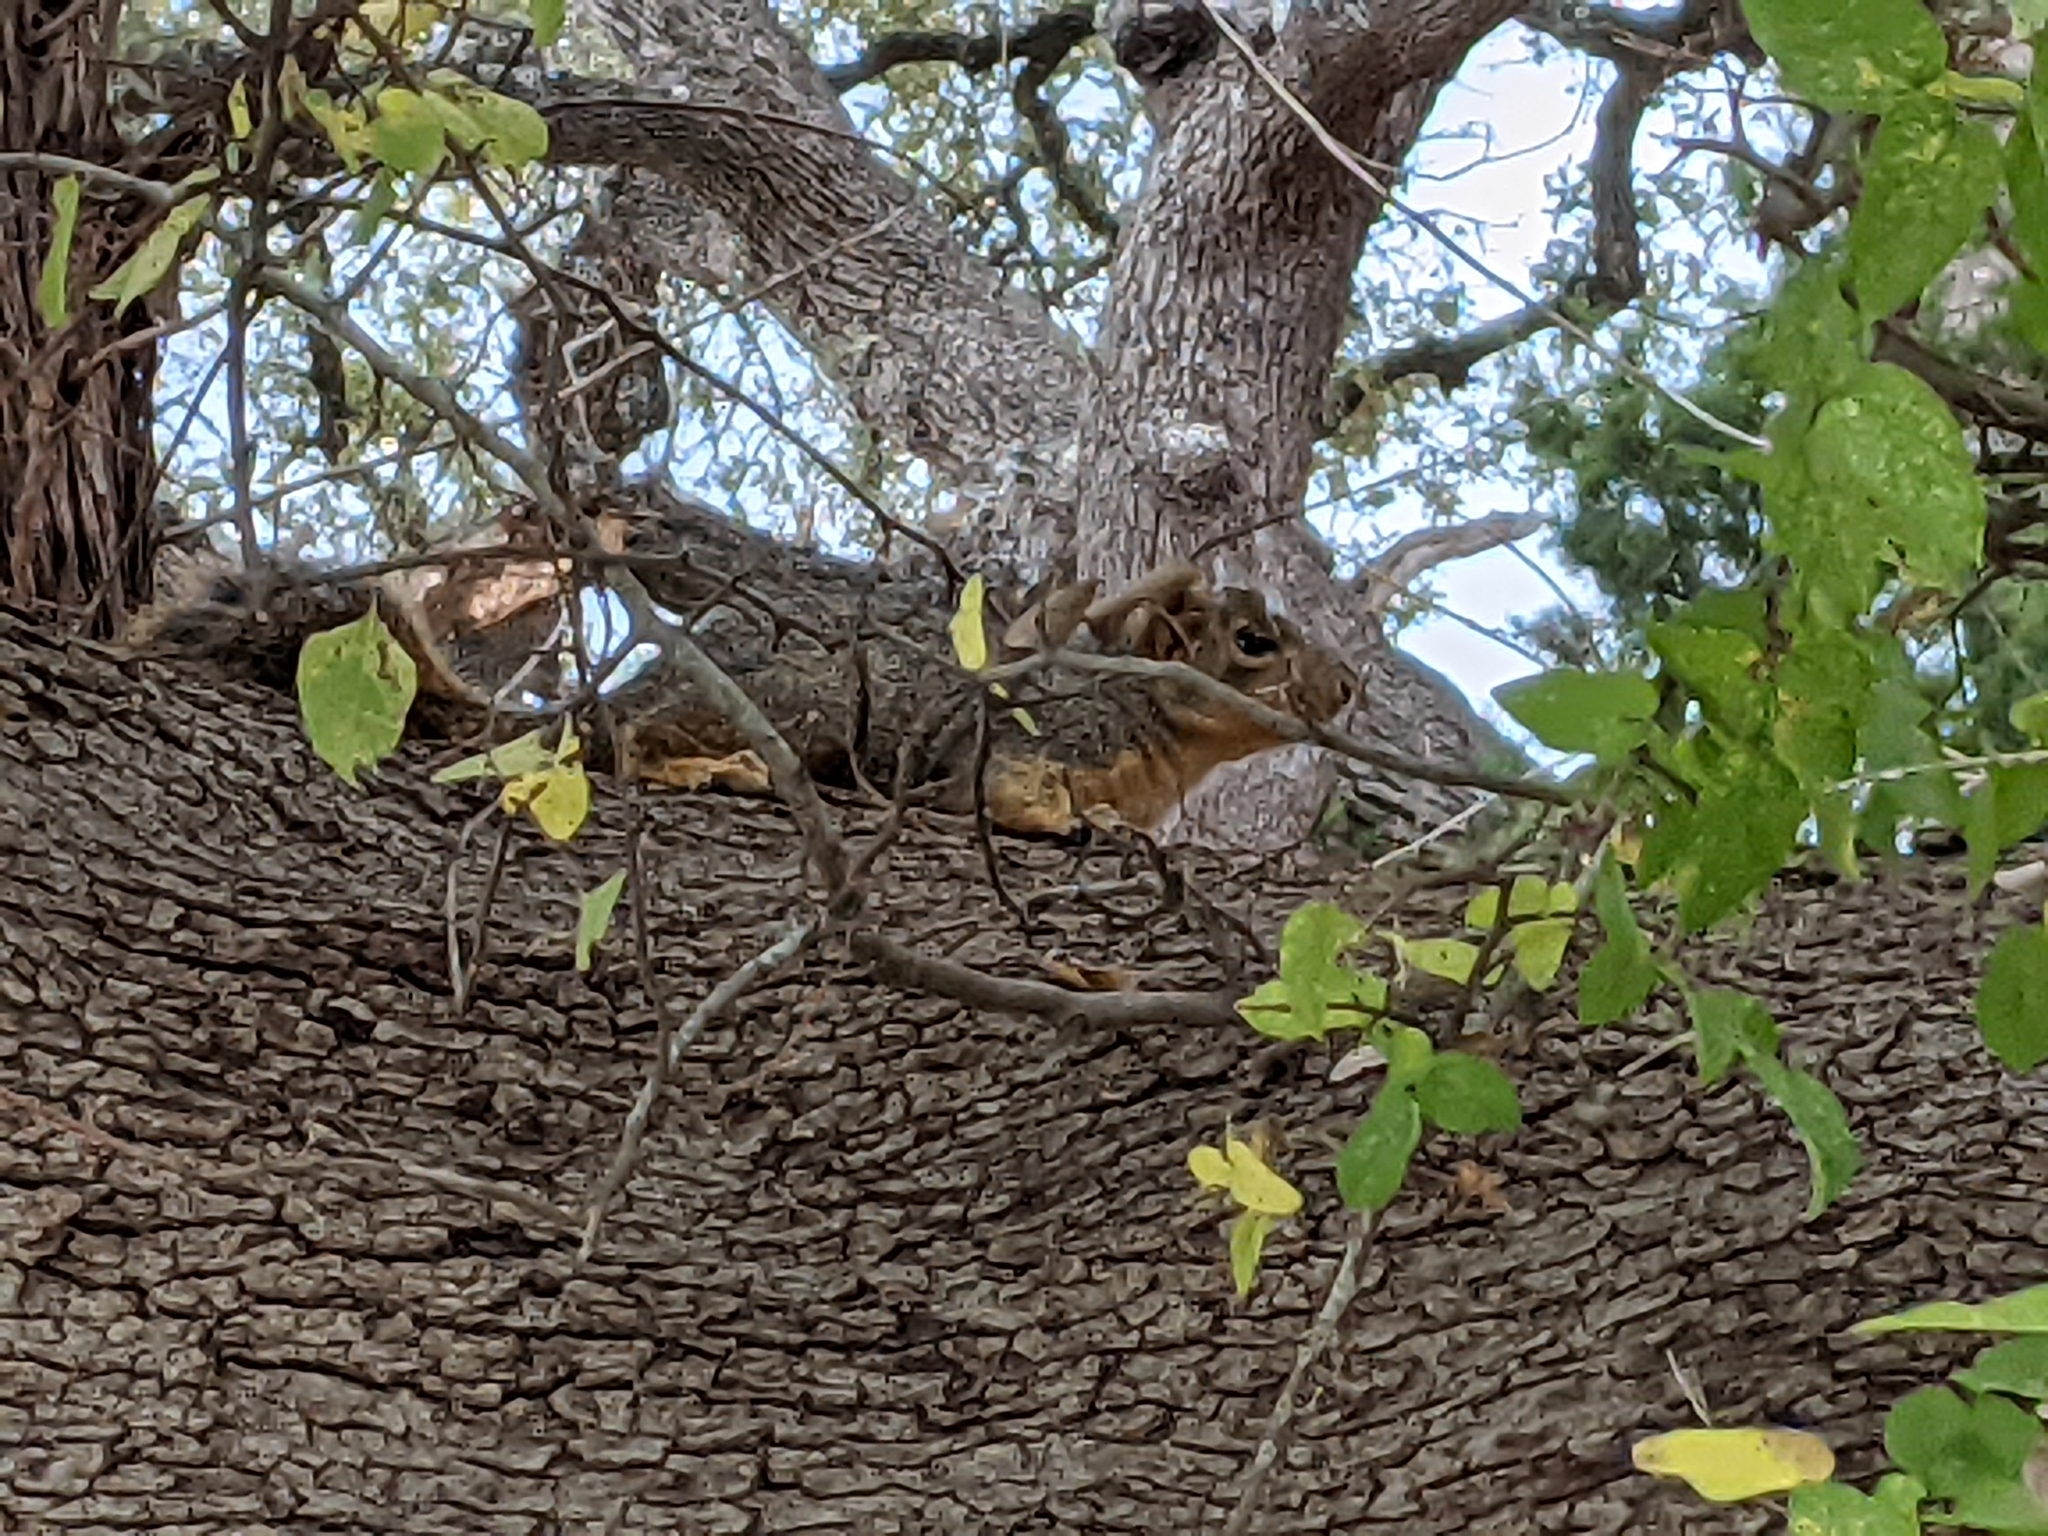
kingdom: Animalia
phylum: Chordata
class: Mammalia
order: Rodentia
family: Sciuridae
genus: Sciurus
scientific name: Sciurus niger
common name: Fox squirrel
